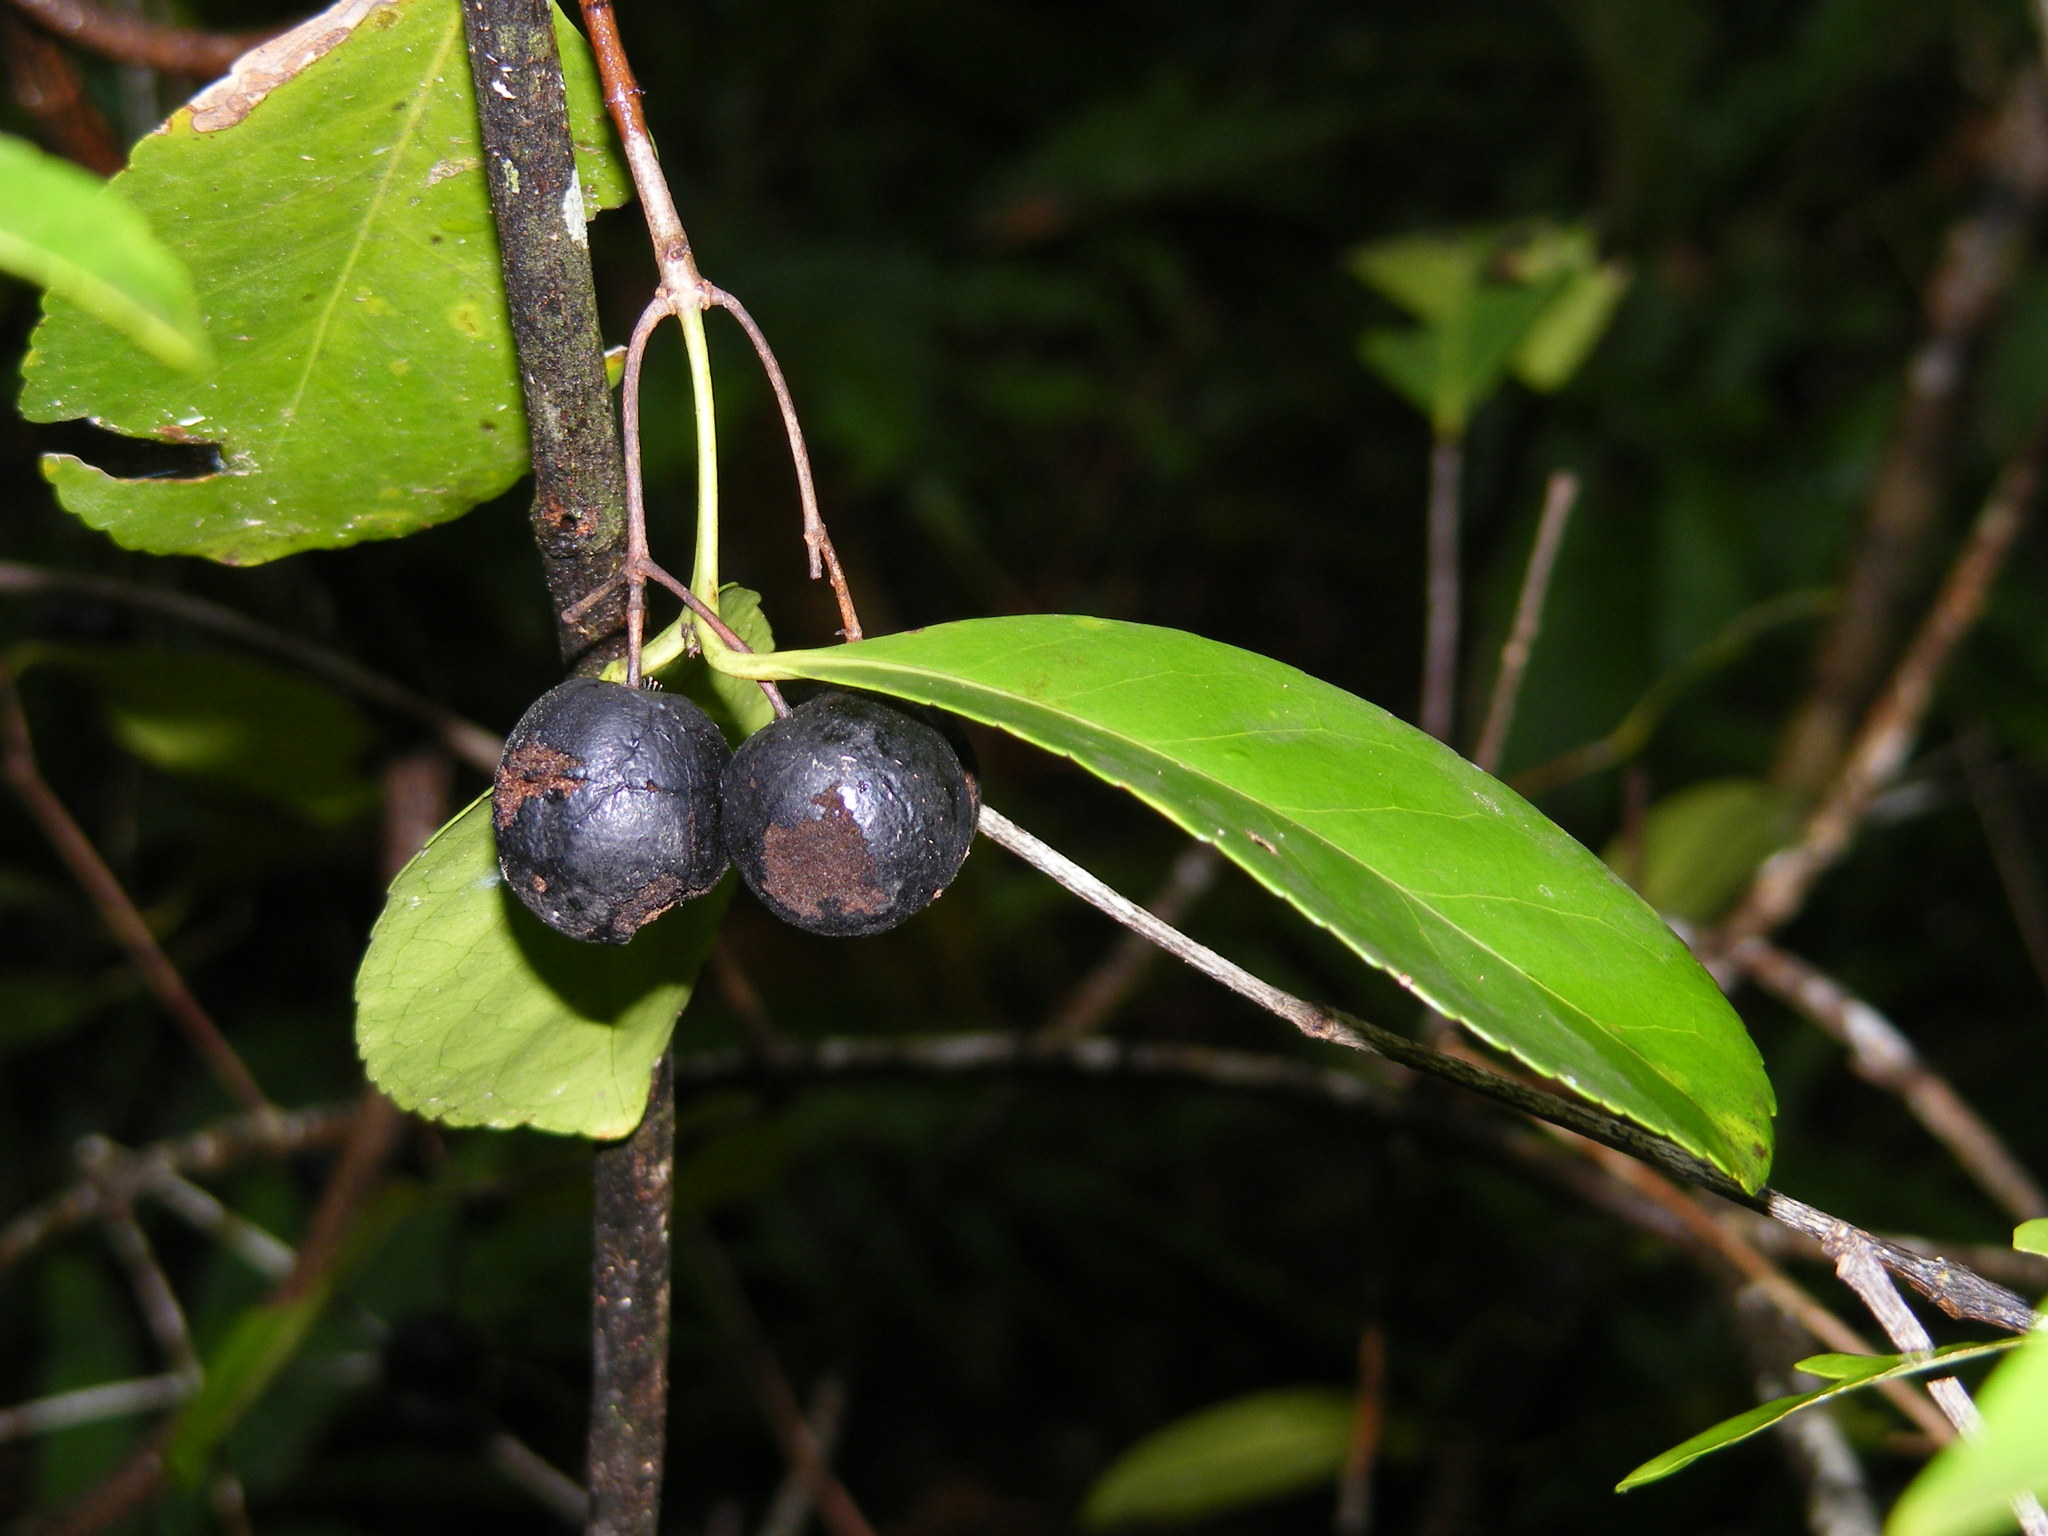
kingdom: Plantae
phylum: Tracheophyta
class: Magnoliopsida
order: Celastrales
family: Celastraceae
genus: Elaeodendron
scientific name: Elaeodendron melanocarpum
